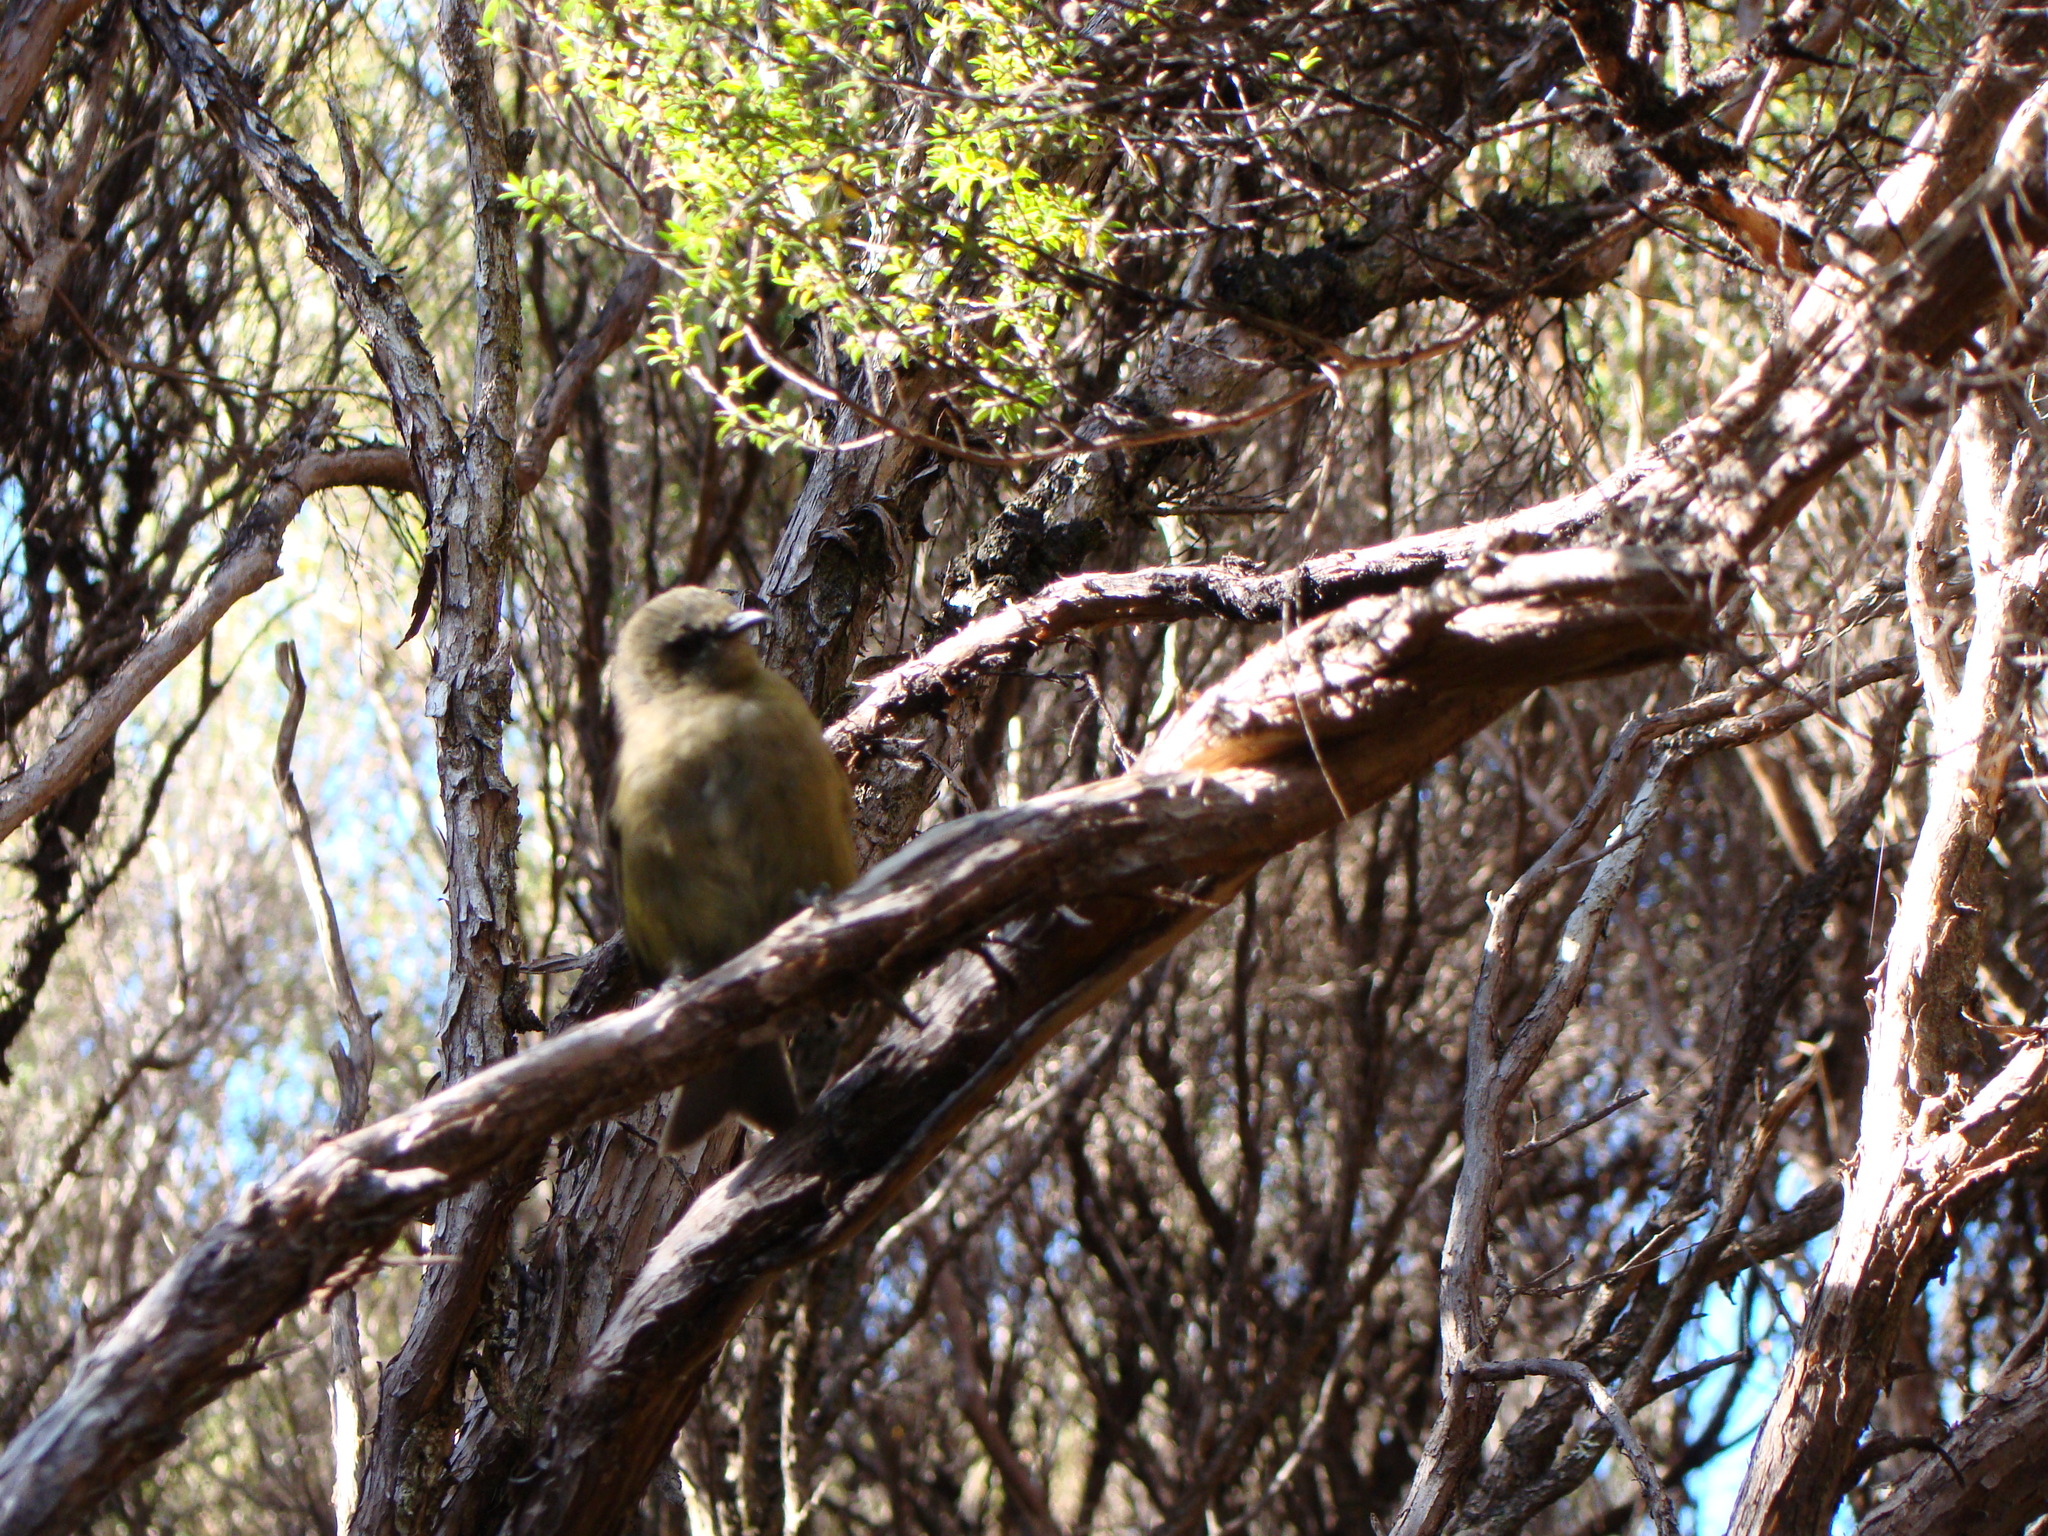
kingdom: Animalia
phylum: Chordata
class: Aves
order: Passeriformes
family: Meliphagidae
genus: Anthornis
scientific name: Anthornis melanura
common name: New zealand bellbird
